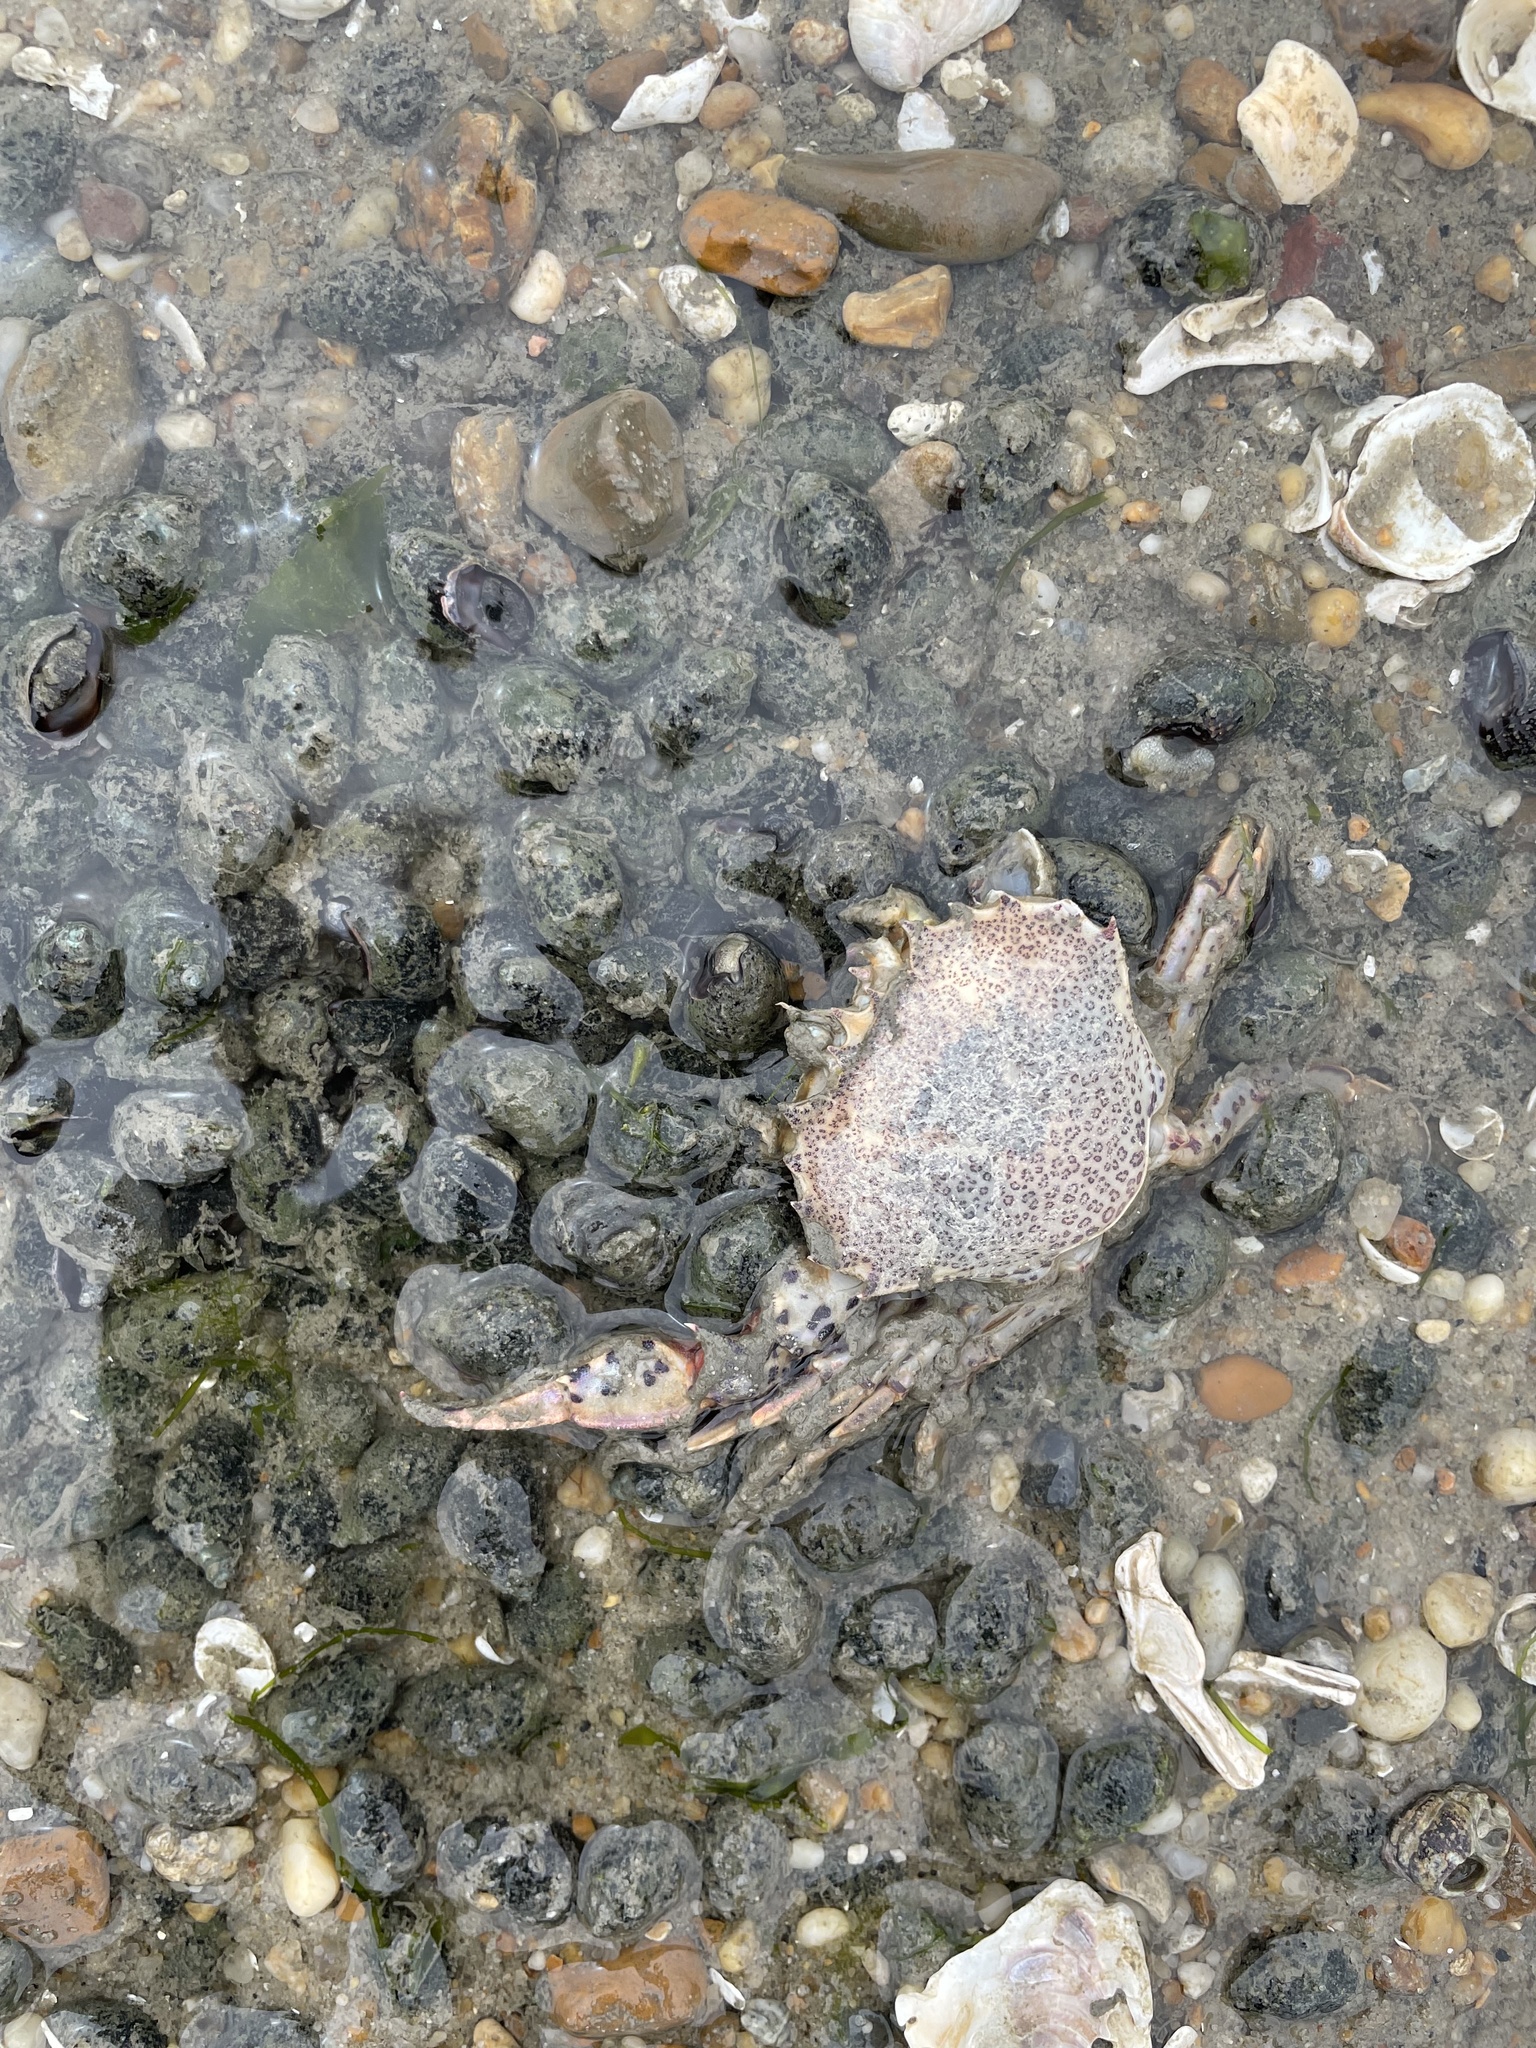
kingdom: Animalia
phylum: Arthropoda
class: Malacostraca
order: Decapoda
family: Ovalipidae
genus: Ovalipes
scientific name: Ovalipes ocellatus
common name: Lady crab
